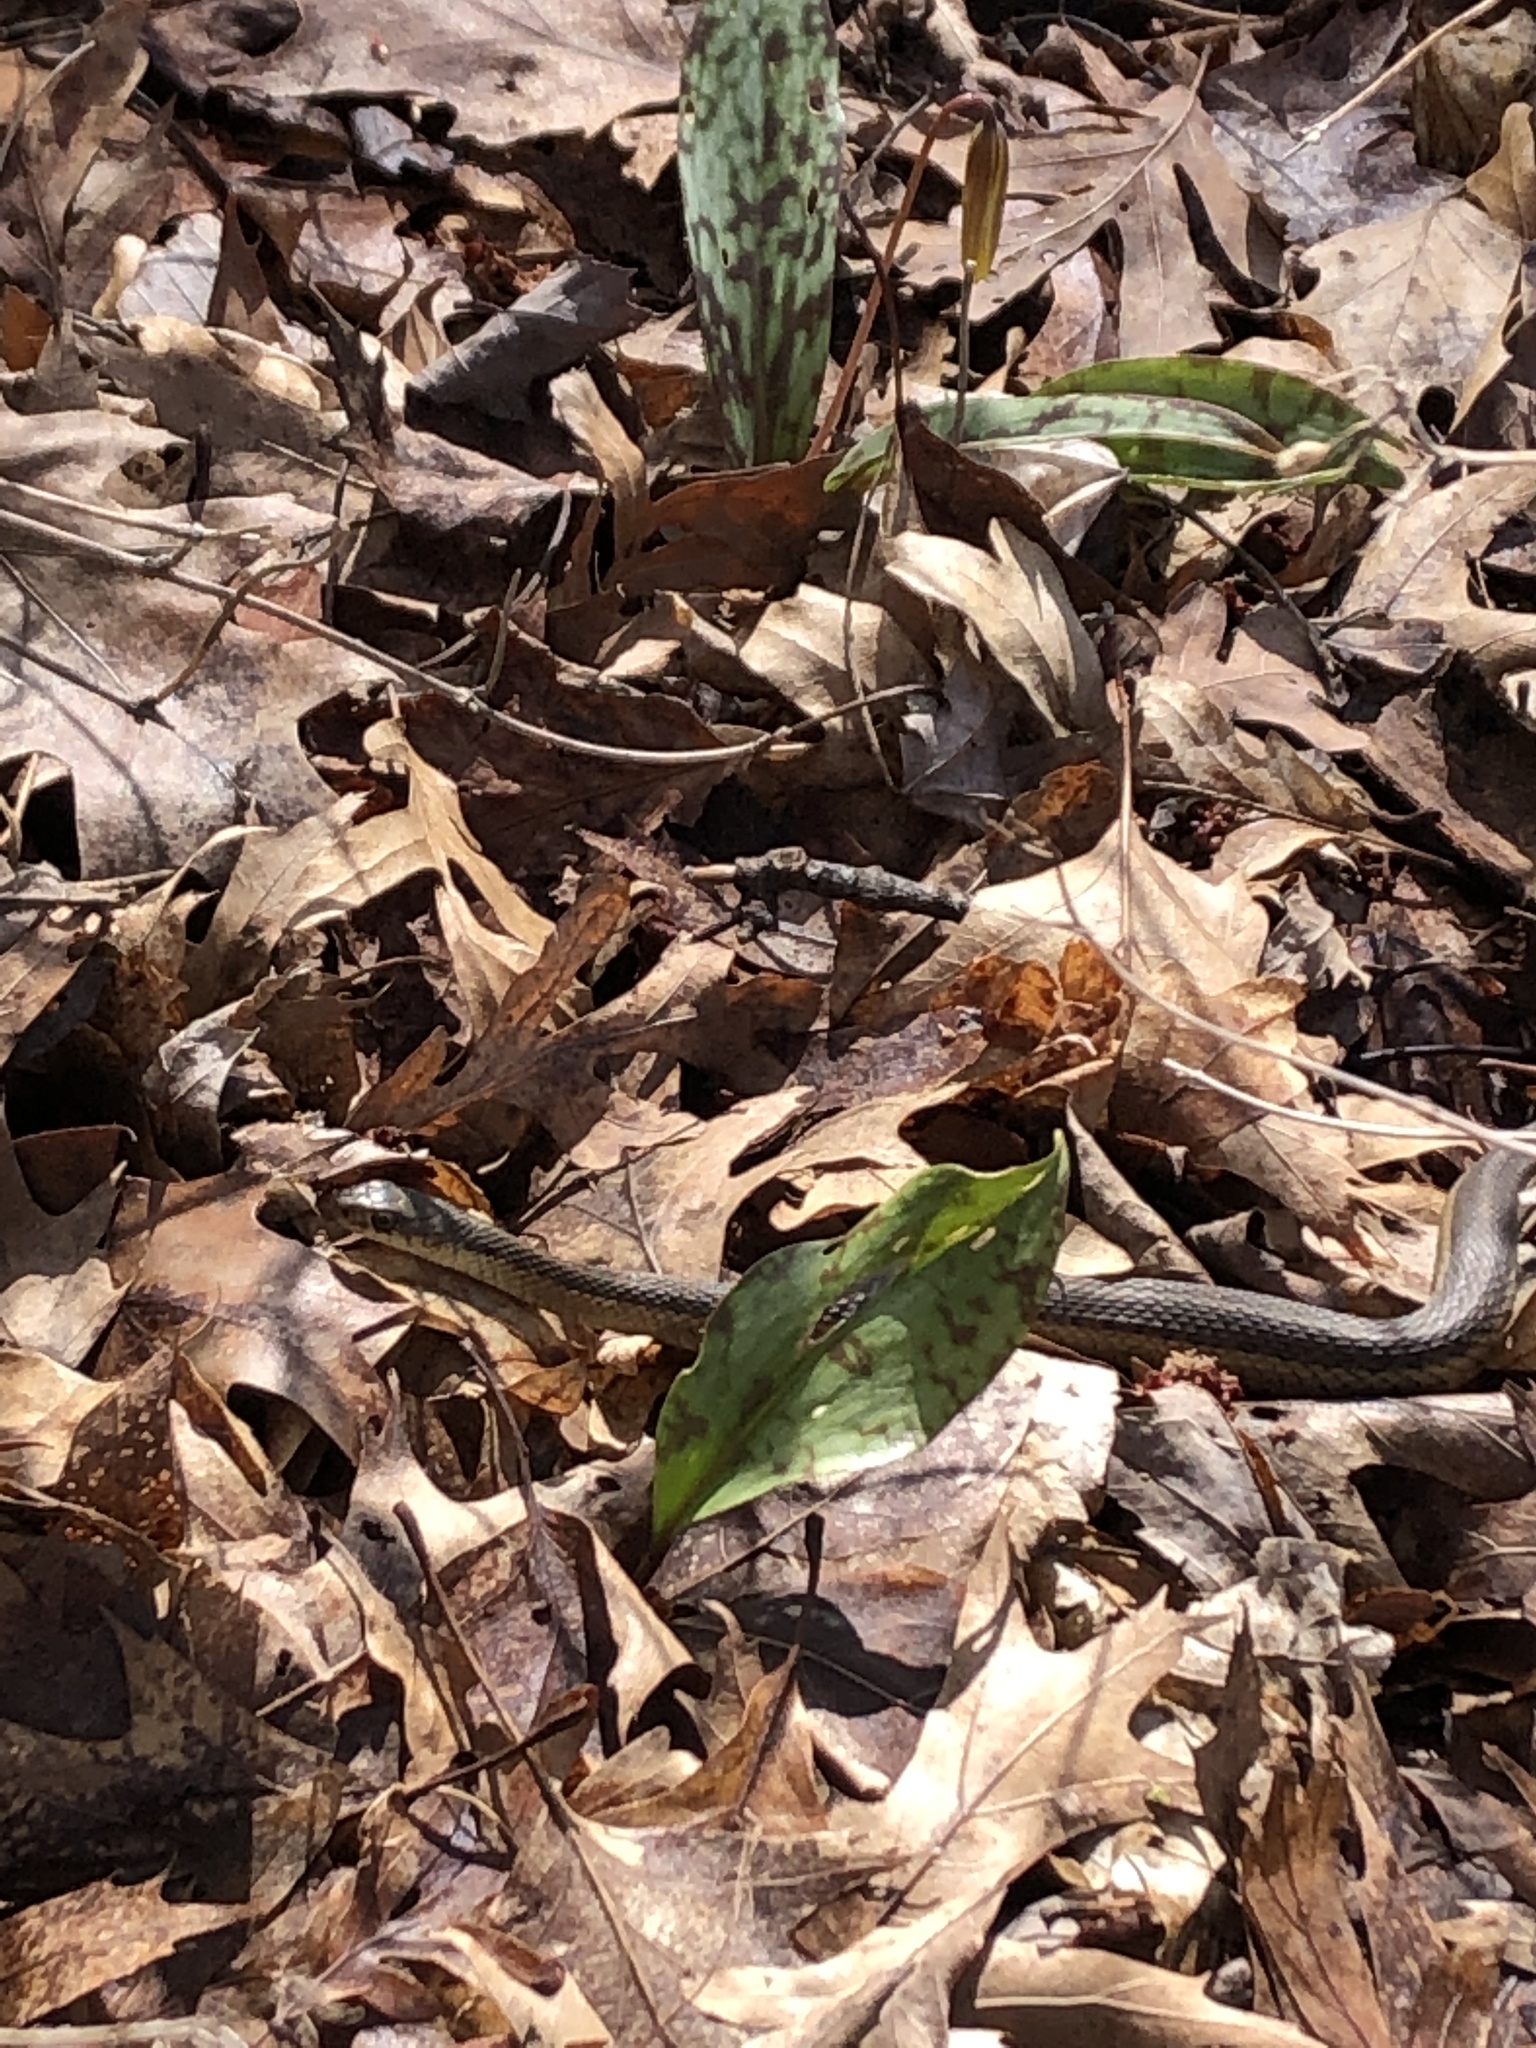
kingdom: Animalia
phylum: Chordata
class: Squamata
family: Colubridae
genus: Thamnophis
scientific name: Thamnophis sirtalis
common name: Common garter snake
